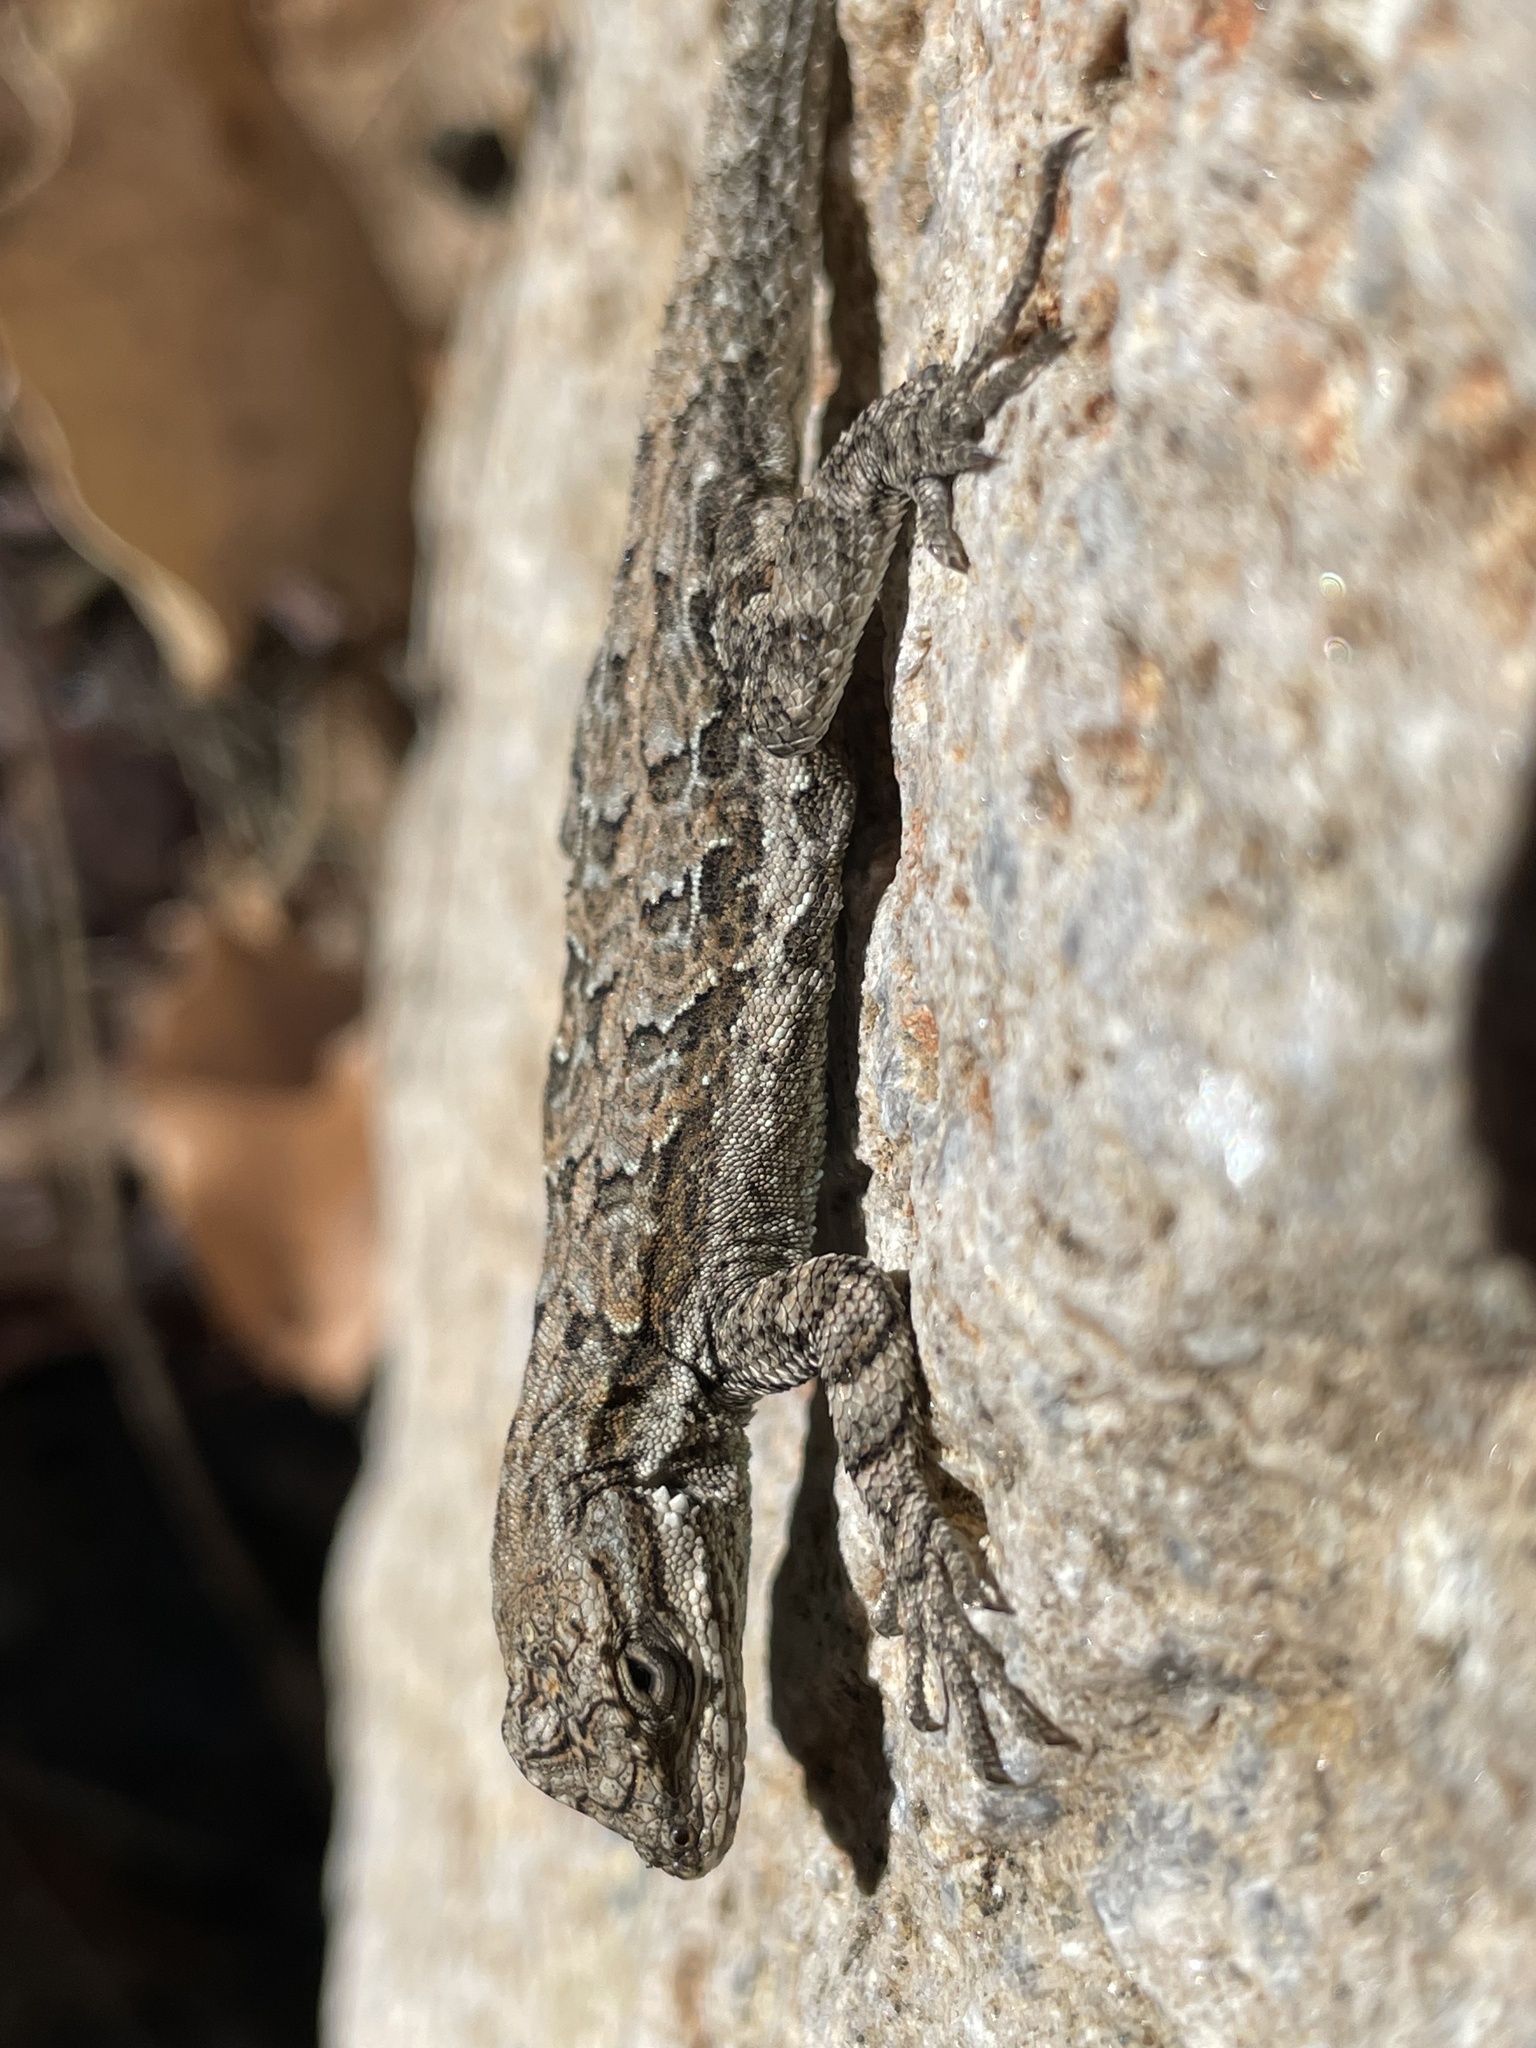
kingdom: Animalia
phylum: Chordata
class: Squamata
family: Phrynosomatidae
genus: Urosaurus
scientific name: Urosaurus ornatus
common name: Ornate tree lizard
